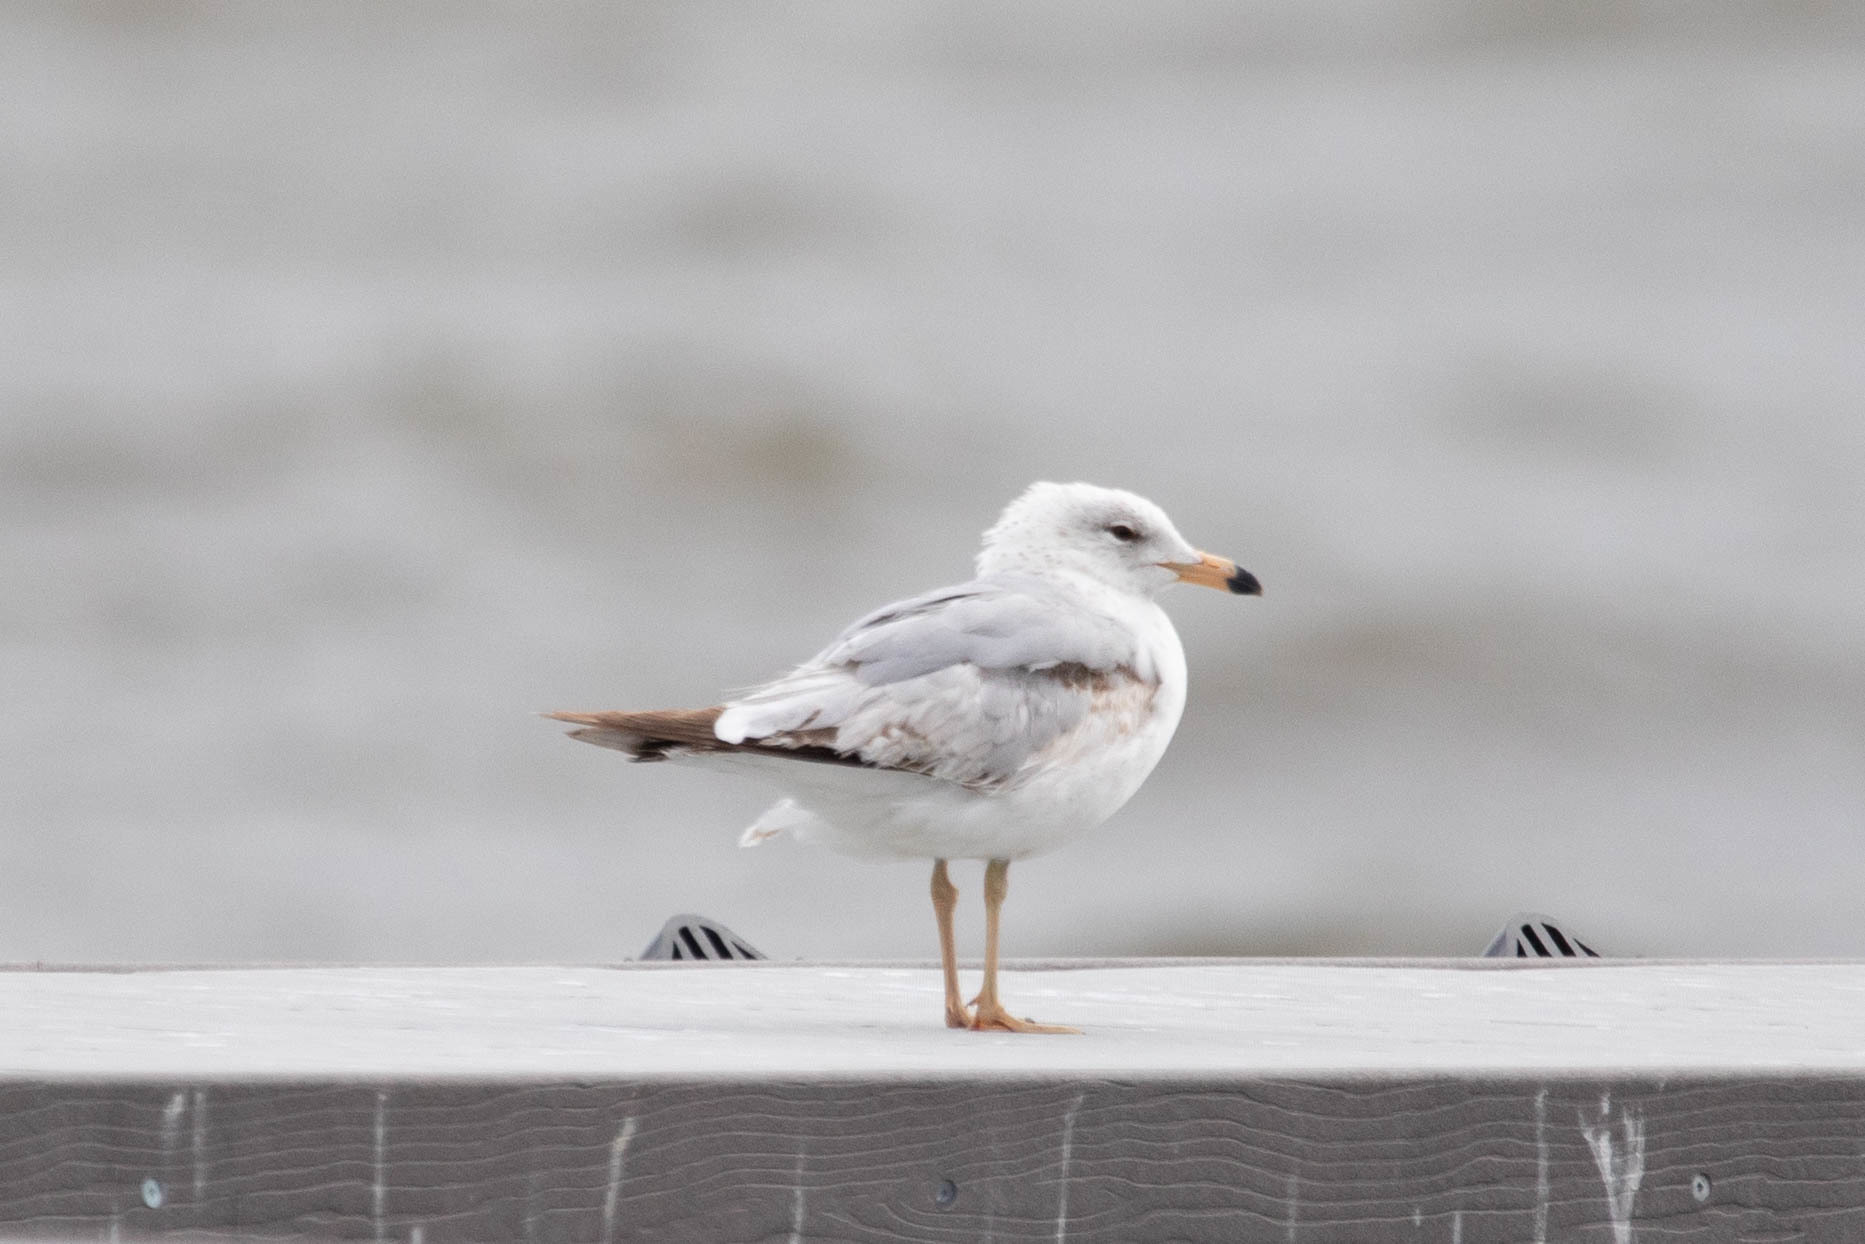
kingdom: Animalia
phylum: Chordata
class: Aves
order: Charadriiformes
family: Laridae
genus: Larus
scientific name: Larus delawarensis
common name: Ring-billed gull
